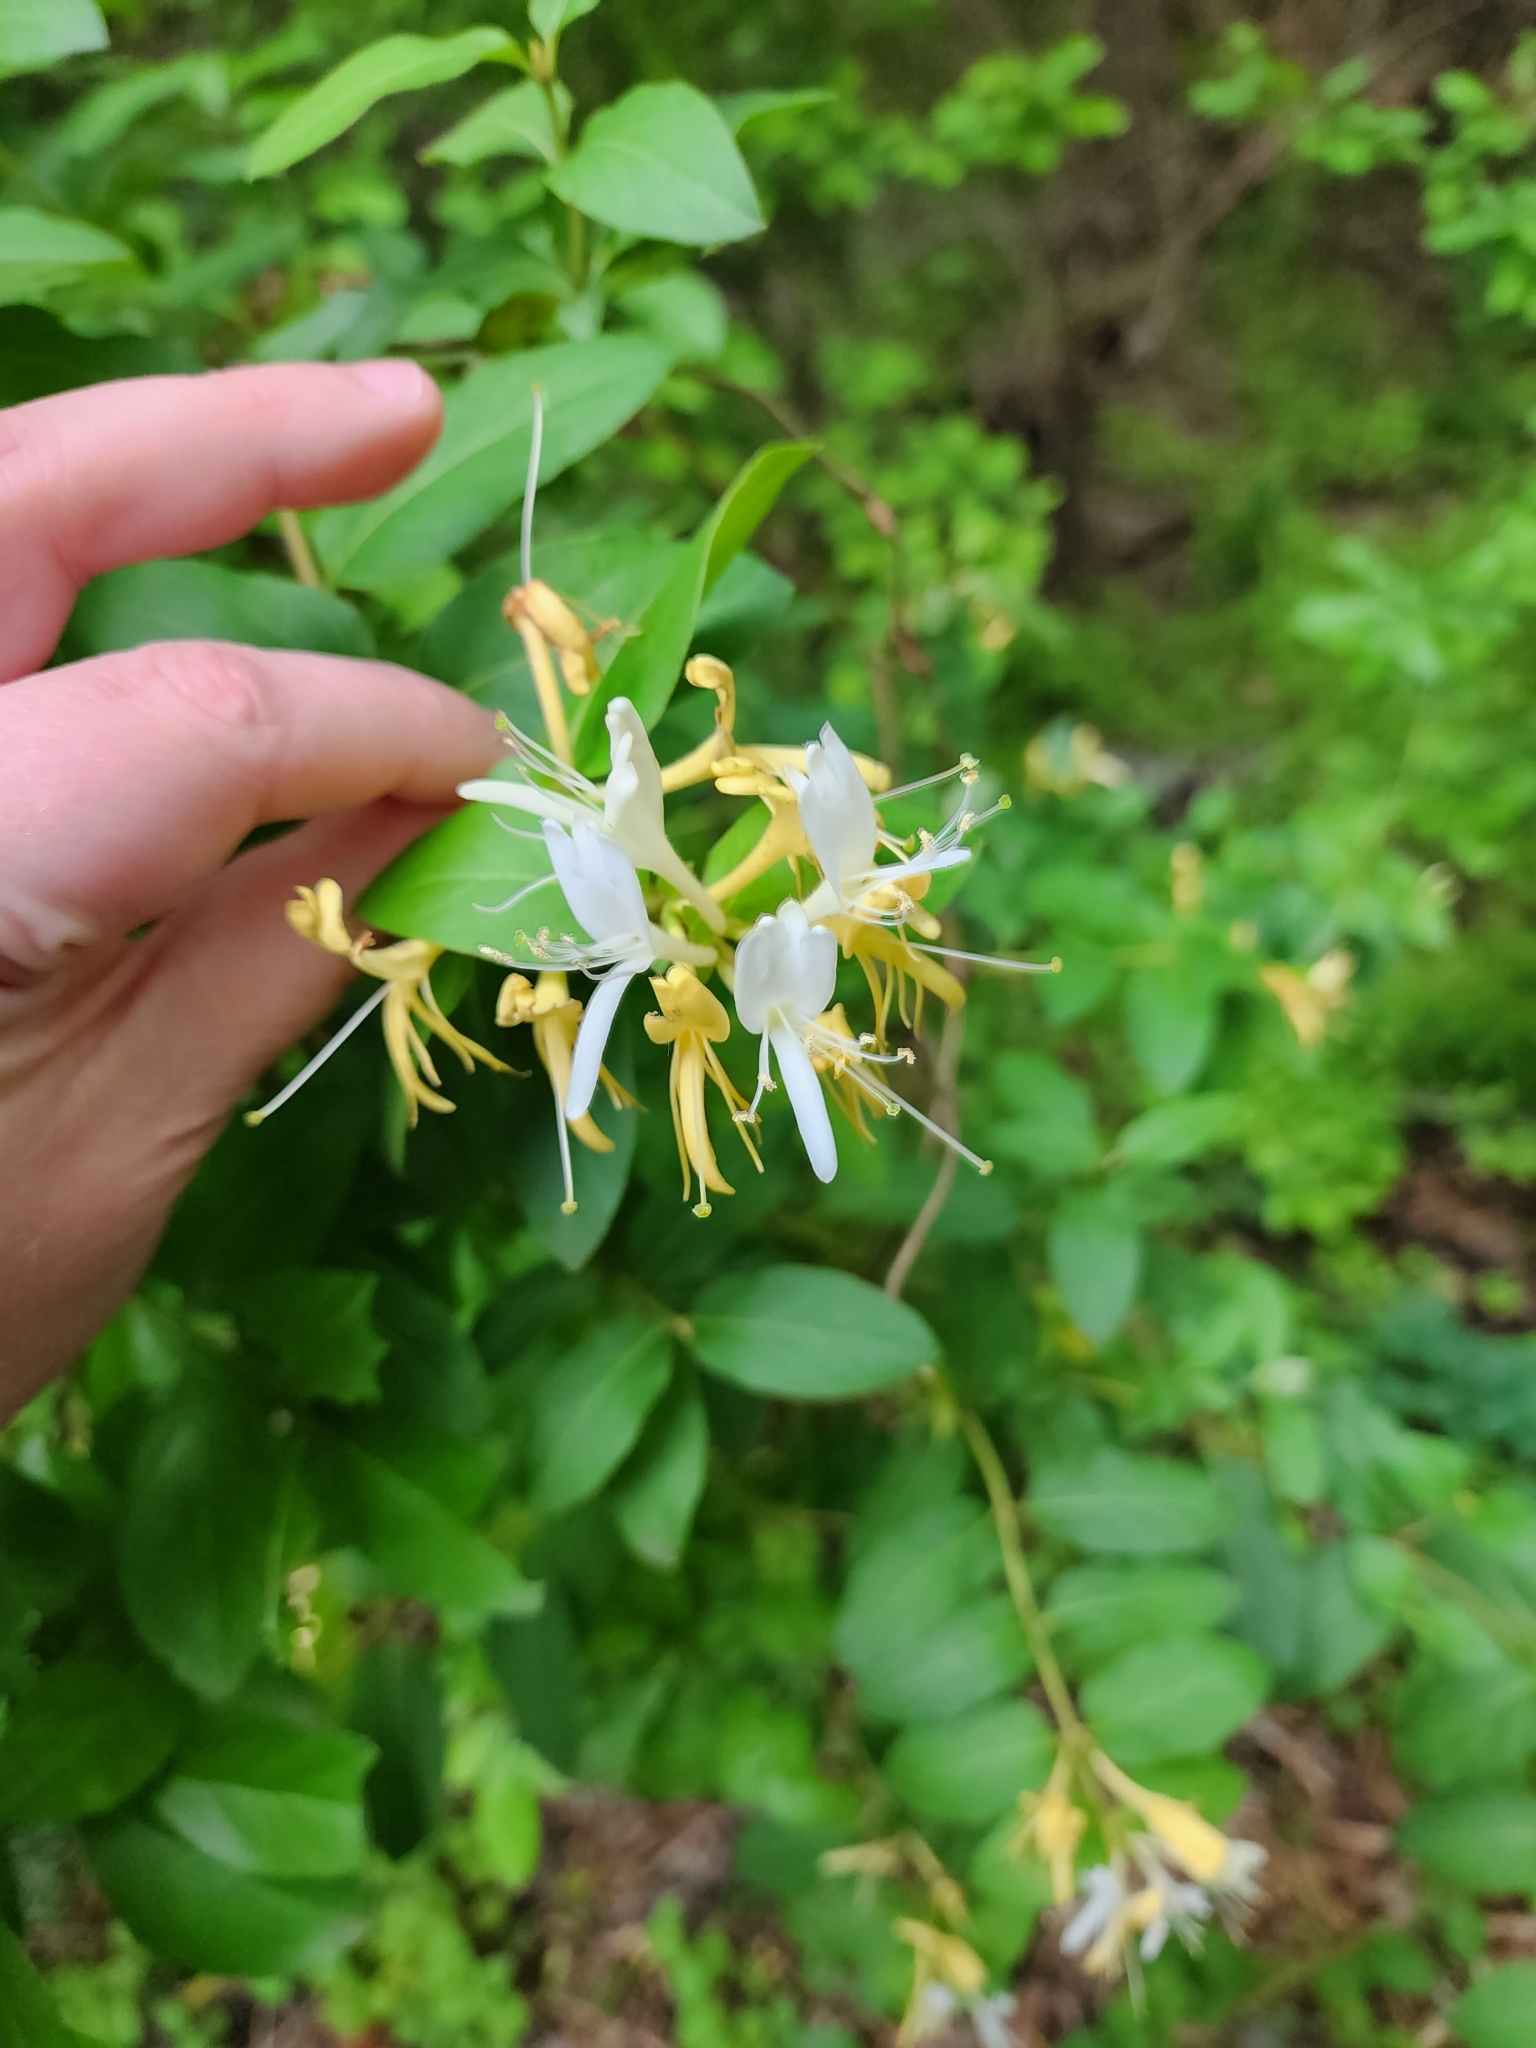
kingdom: Plantae
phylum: Tracheophyta
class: Magnoliopsida
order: Dipsacales
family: Caprifoliaceae
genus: Lonicera
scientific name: Lonicera japonica
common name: Japanese honeysuckle
